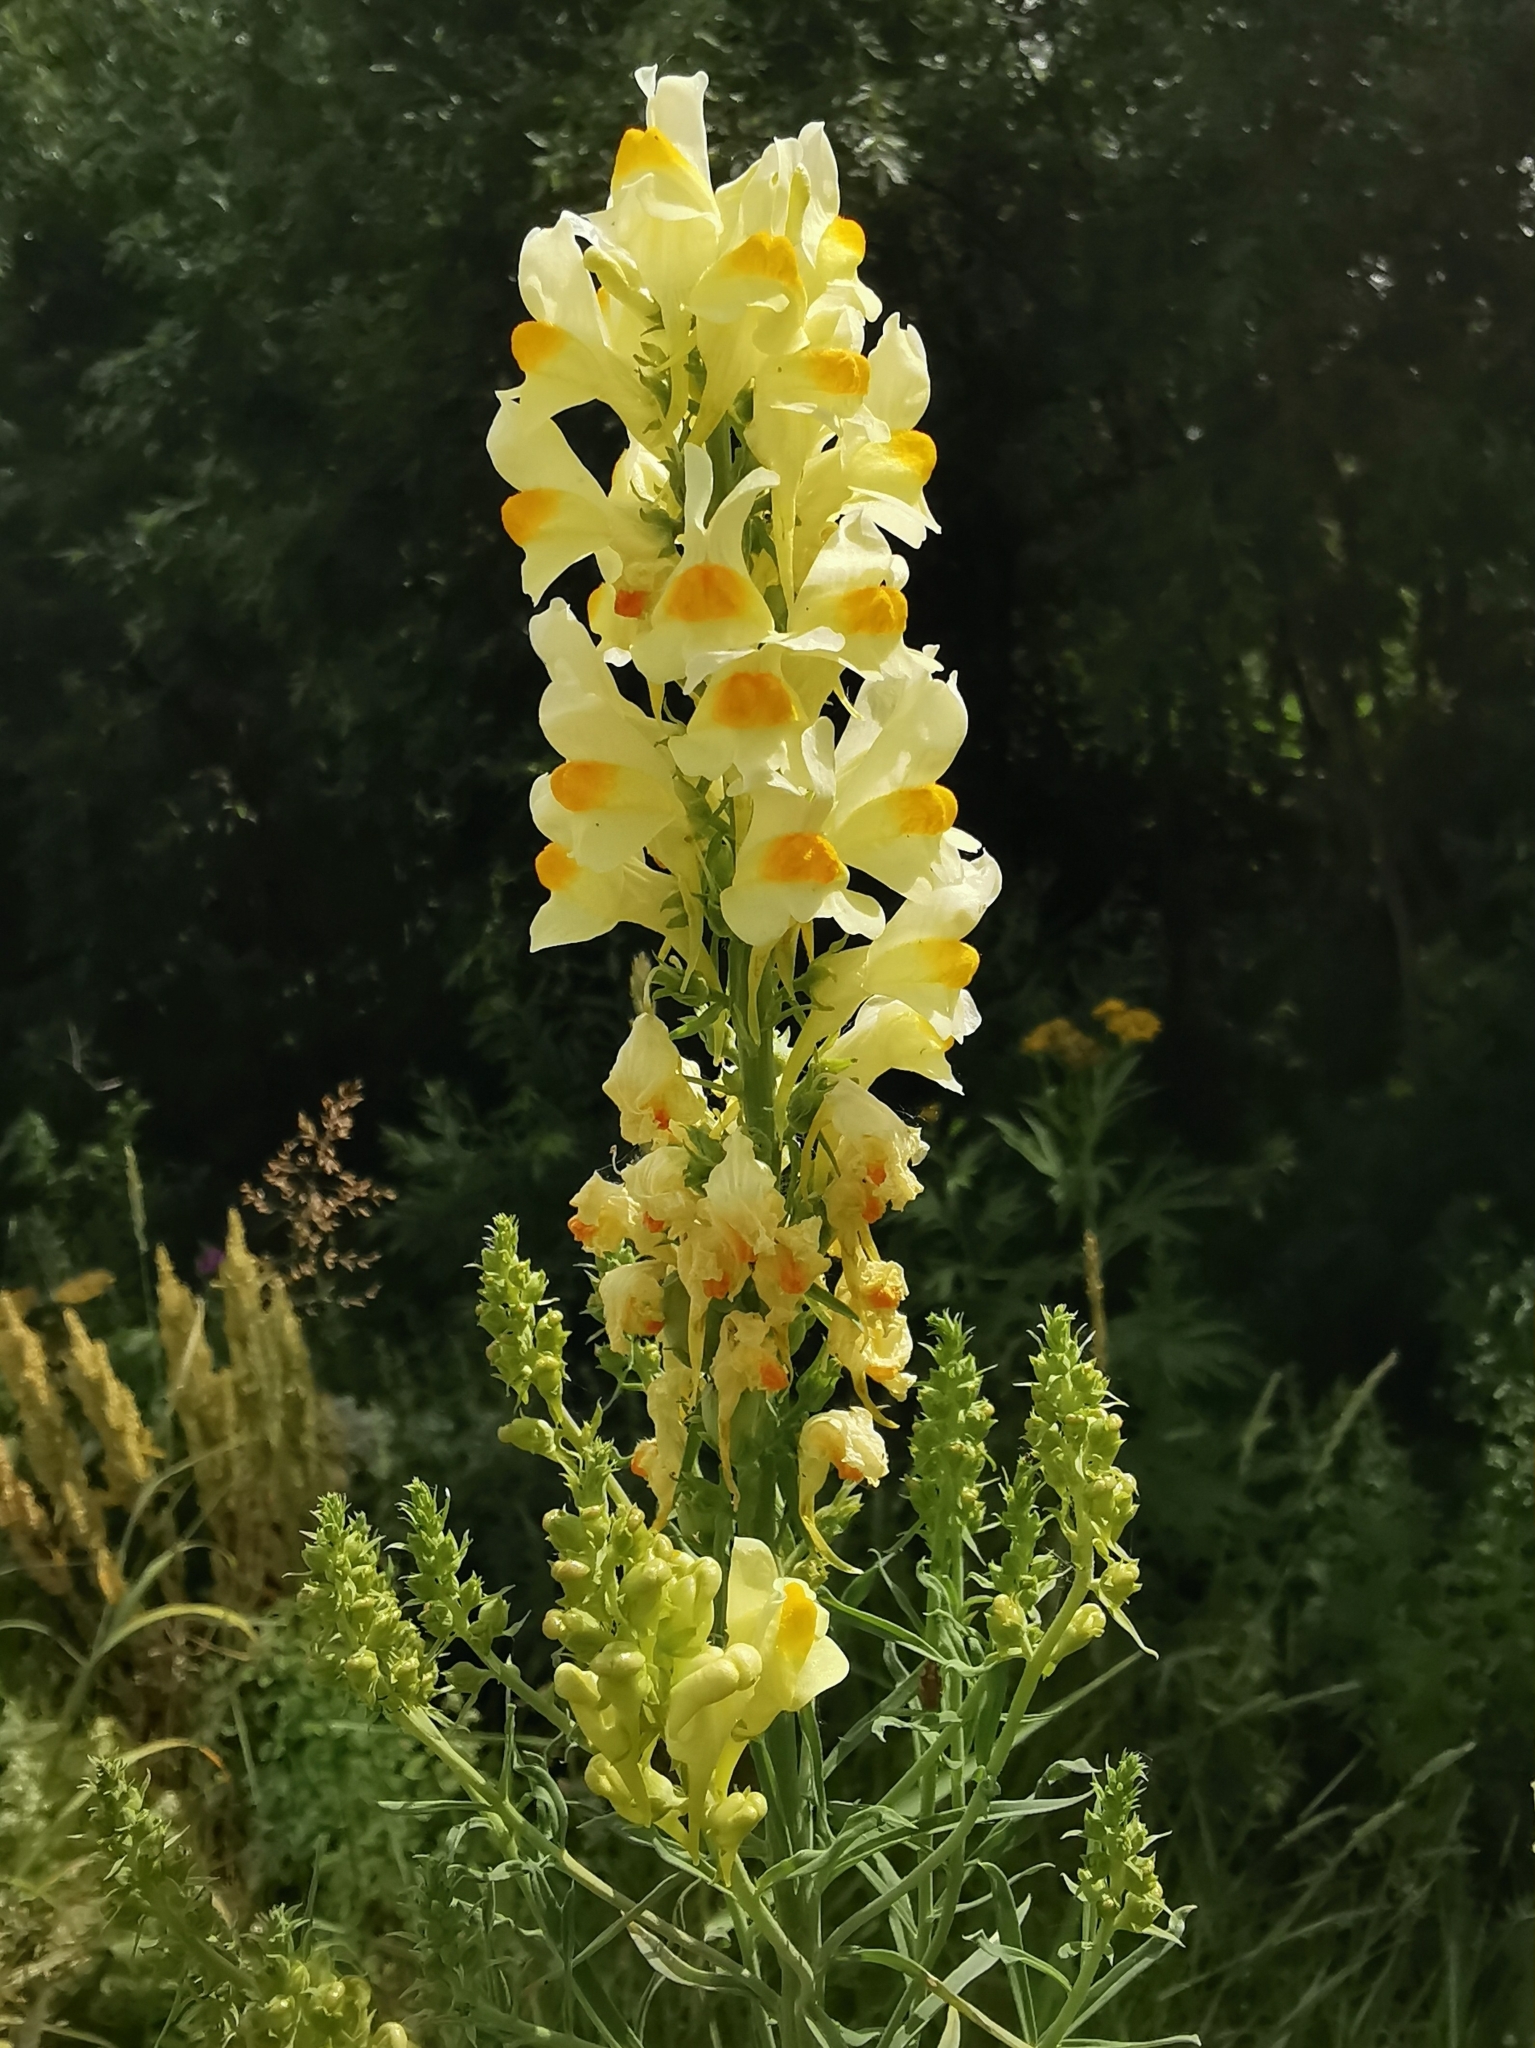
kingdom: Plantae
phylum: Tracheophyta
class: Magnoliopsida
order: Lamiales
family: Plantaginaceae
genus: Linaria
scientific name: Linaria vulgaris
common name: Butter and eggs
